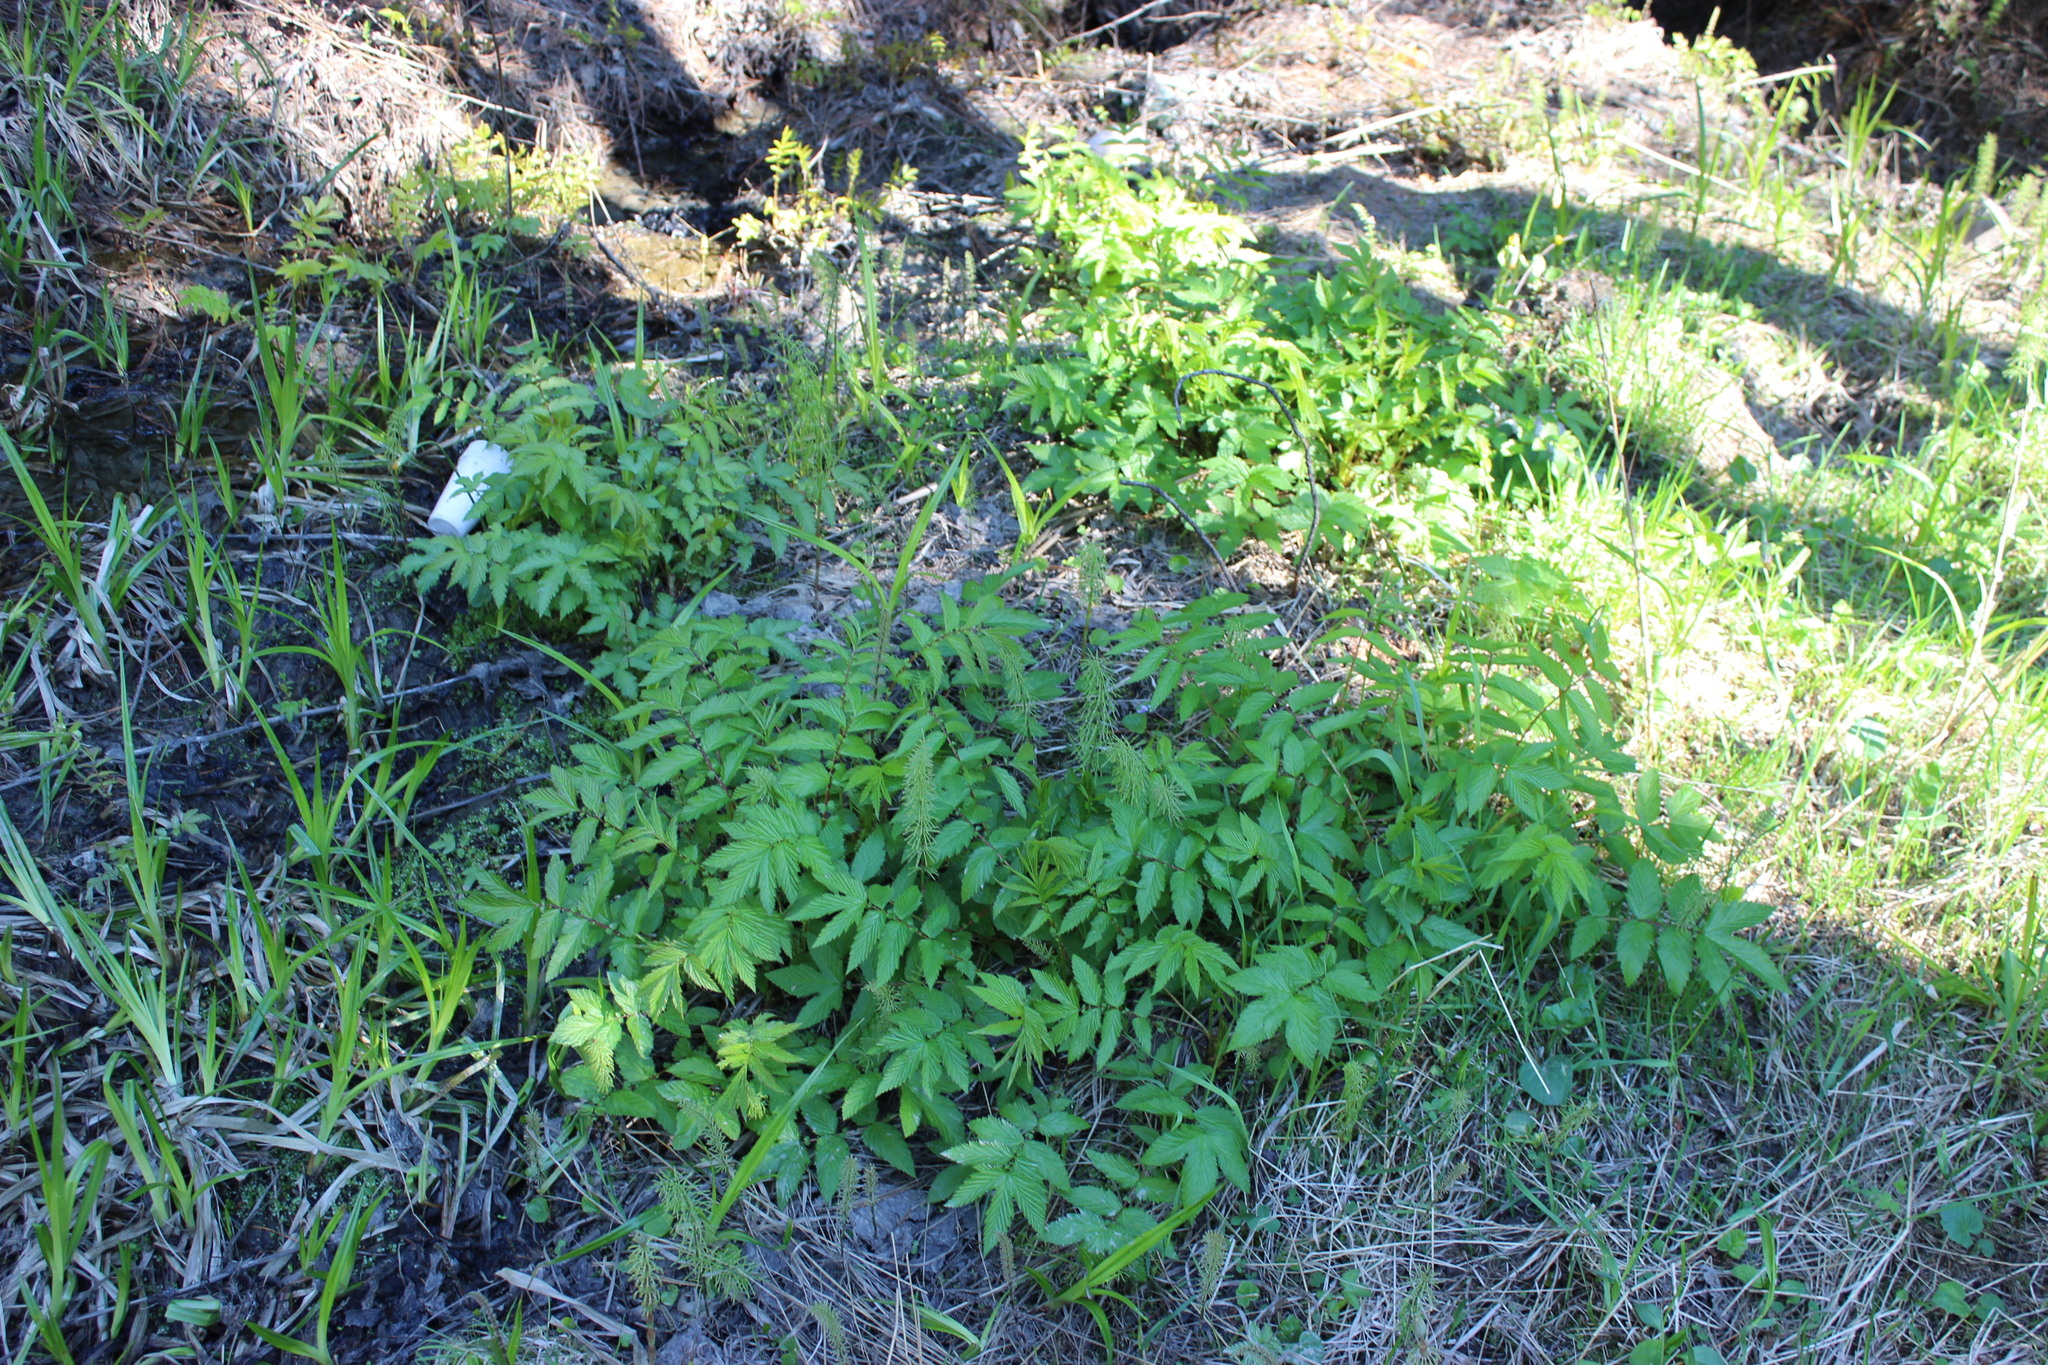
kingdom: Plantae
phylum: Tracheophyta
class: Magnoliopsida
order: Rosales
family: Rosaceae
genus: Filipendula
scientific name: Filipendula ulmaria
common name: Meadowsweet
